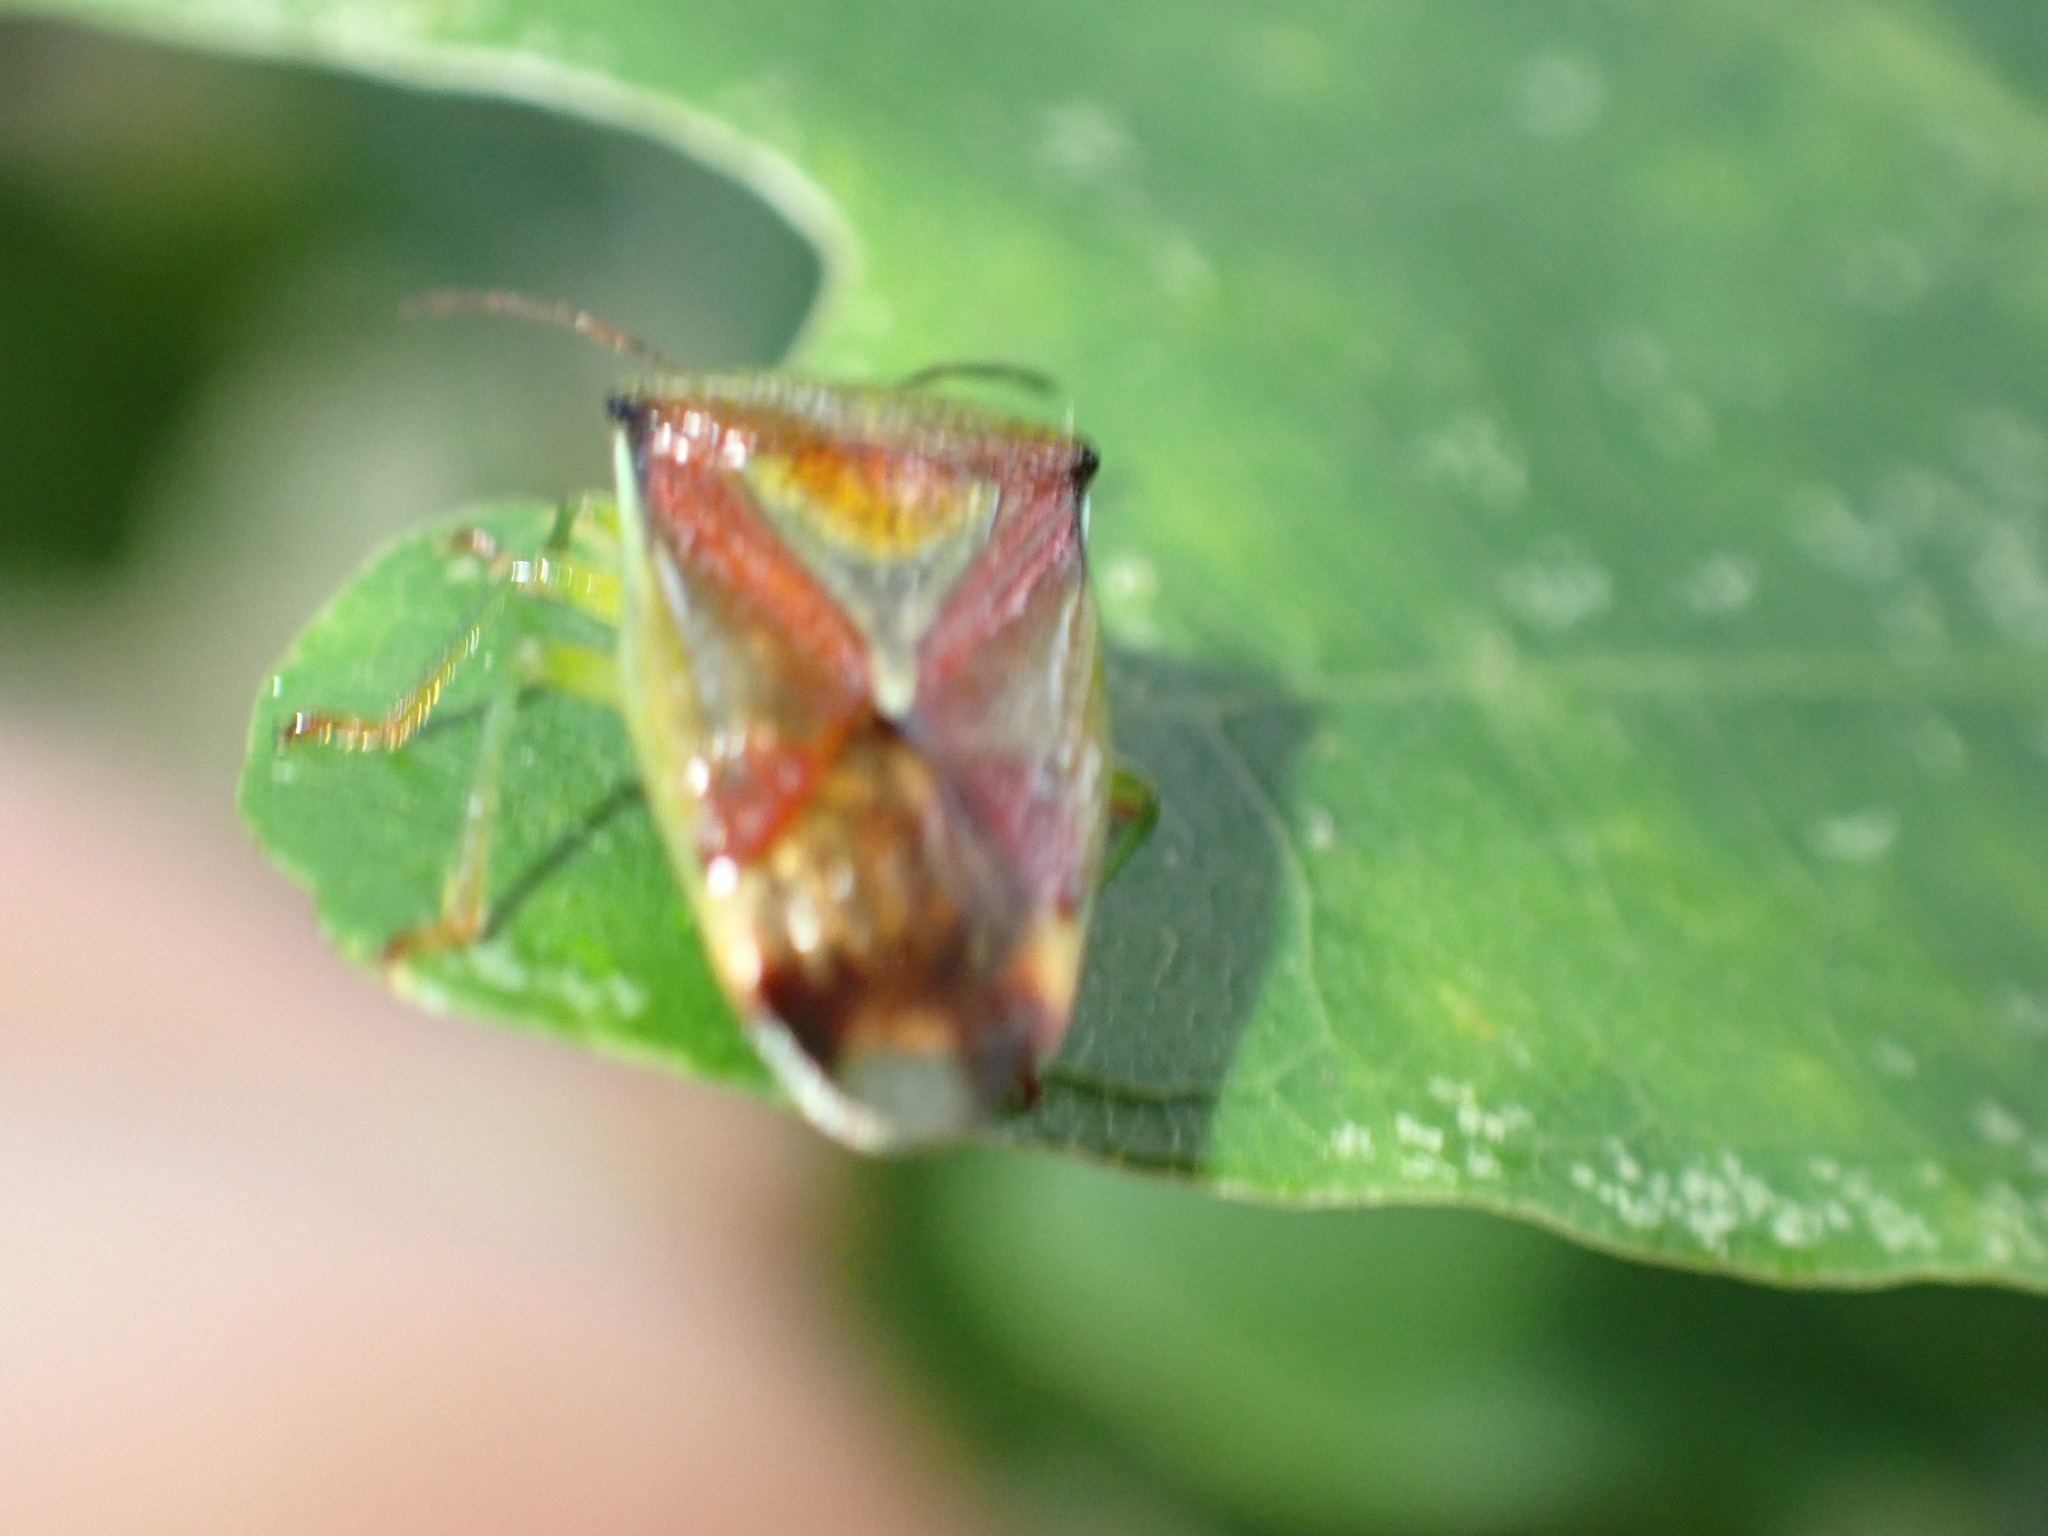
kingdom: Animalia
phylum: Arthropoda
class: Insecta
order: Hemiptera
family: Acanthosomatidae
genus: Elasmostethus
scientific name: Elasmostethus interstinctus
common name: Birch shieldbug
